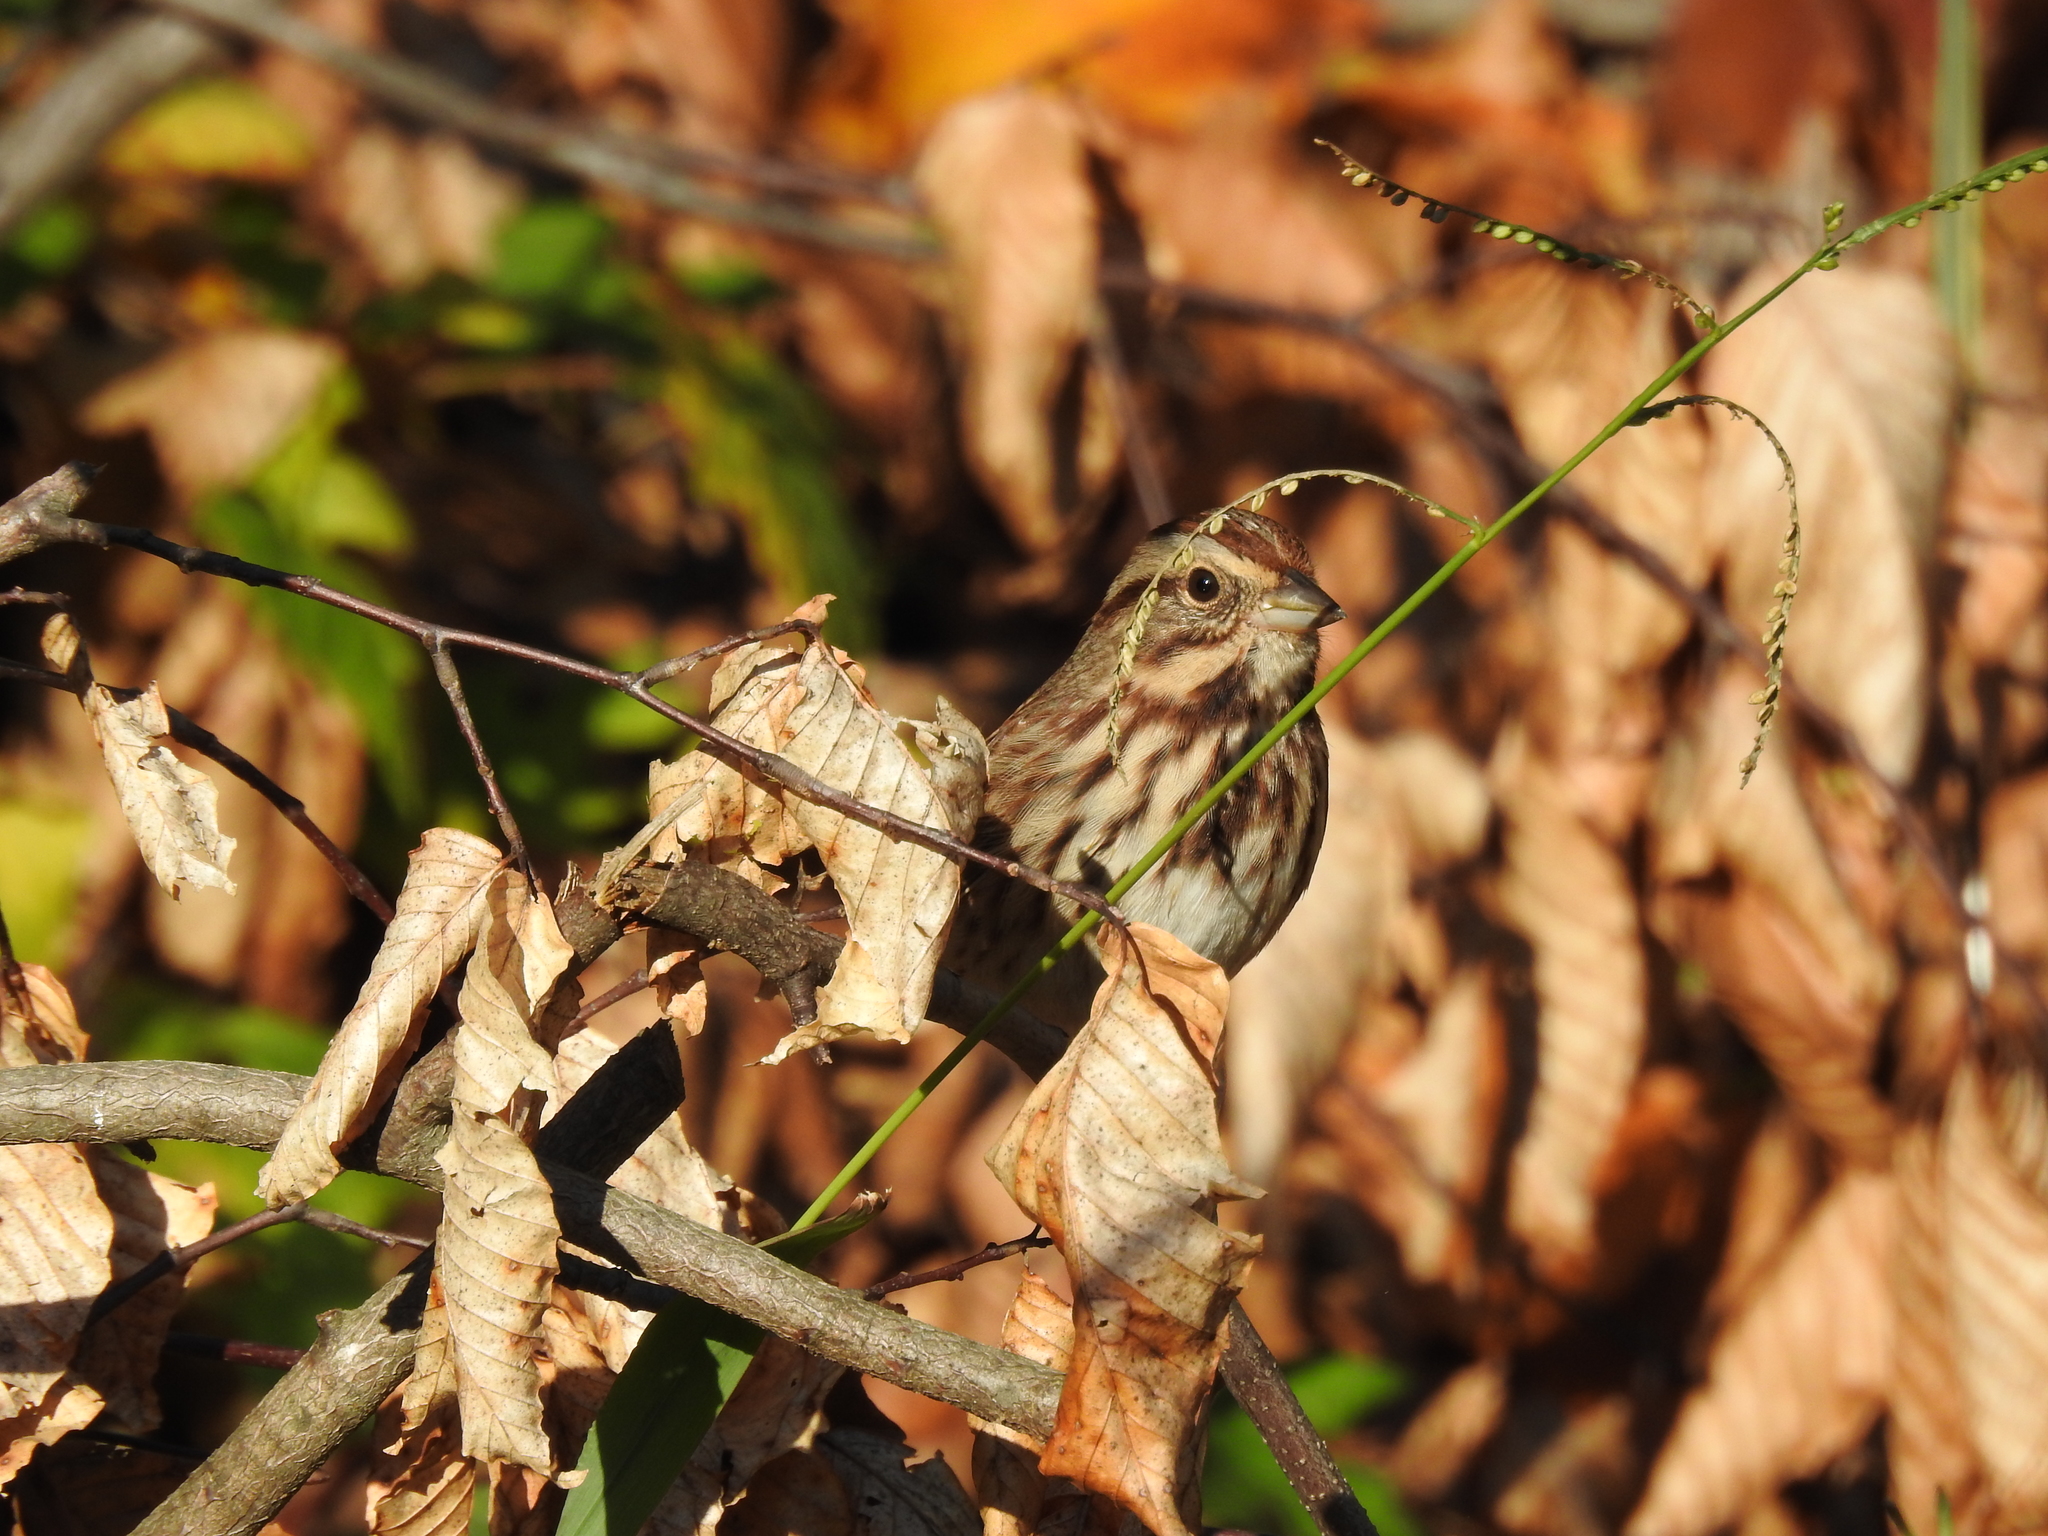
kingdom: Animalia
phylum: Chordata
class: Aves
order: Passeriformes
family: Passerellidae
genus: Melospiza
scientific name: Melospiza melodia
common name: Song sparrow
